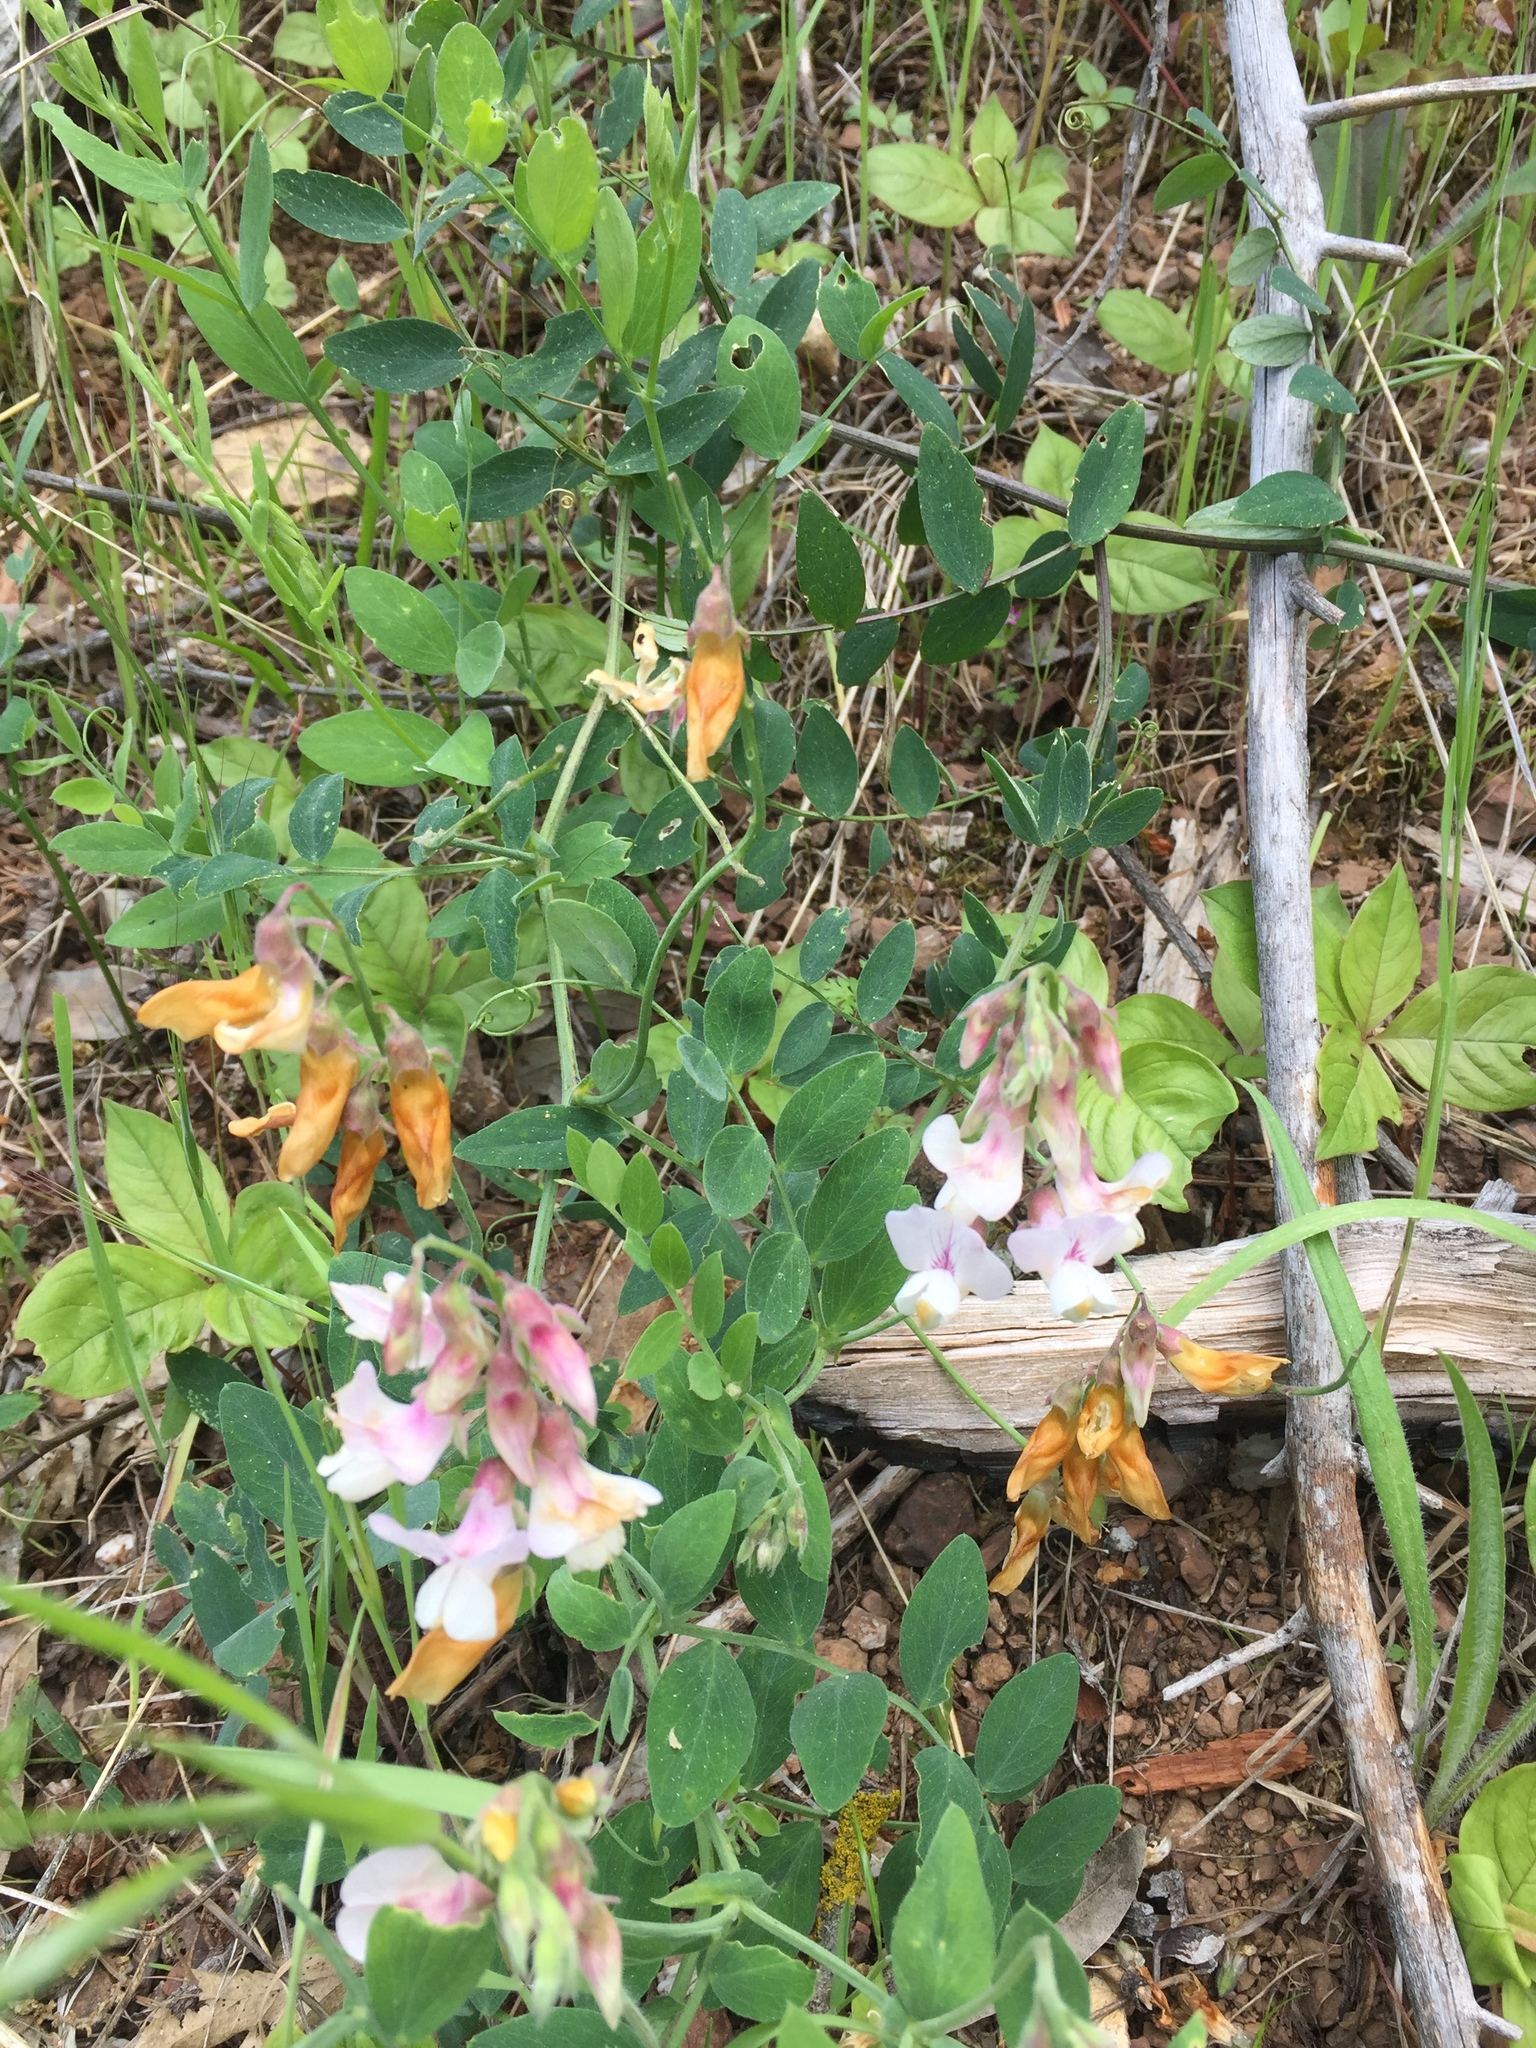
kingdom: Plantae
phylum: Tracheophyta
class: Magnoliopsida
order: Fabales
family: Fabaceae
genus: Lathyrus
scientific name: Lathyrus vestitus
